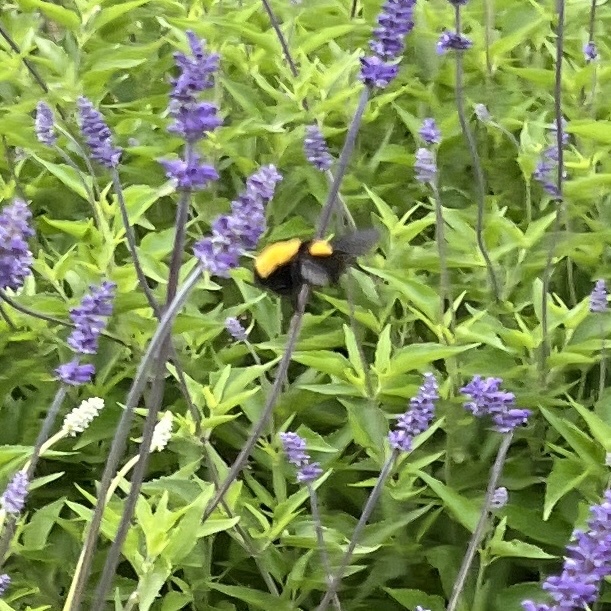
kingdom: Animalia
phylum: Arthropoda
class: Insecta
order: Hymenoptera
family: Apidae
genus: Bombus
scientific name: Bombus sonorus
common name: Sonoran bumble bee
